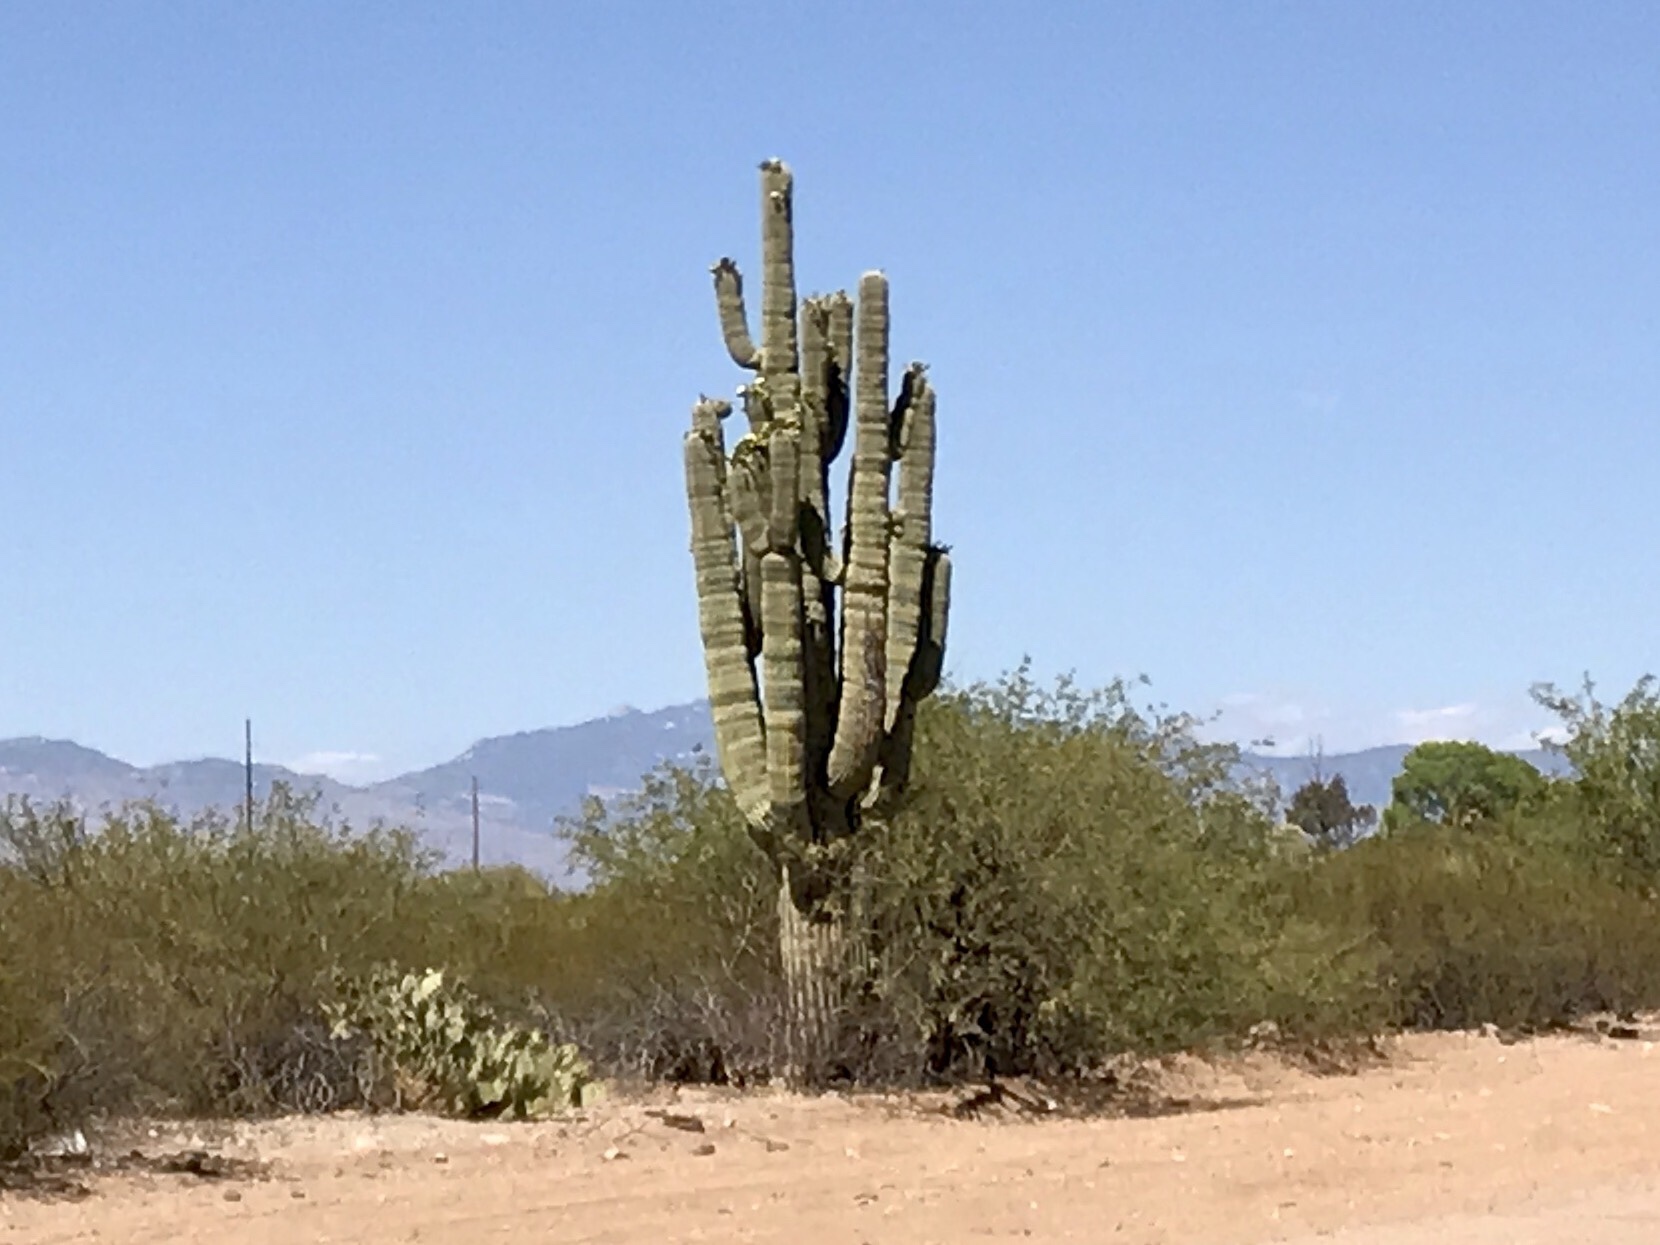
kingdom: Plantae
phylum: Tracheophyta
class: Magnoliopsida
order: Caryophyllales
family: Cactaceae
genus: Carnegiea
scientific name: Carnegiea gigantea
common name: Saguaro
